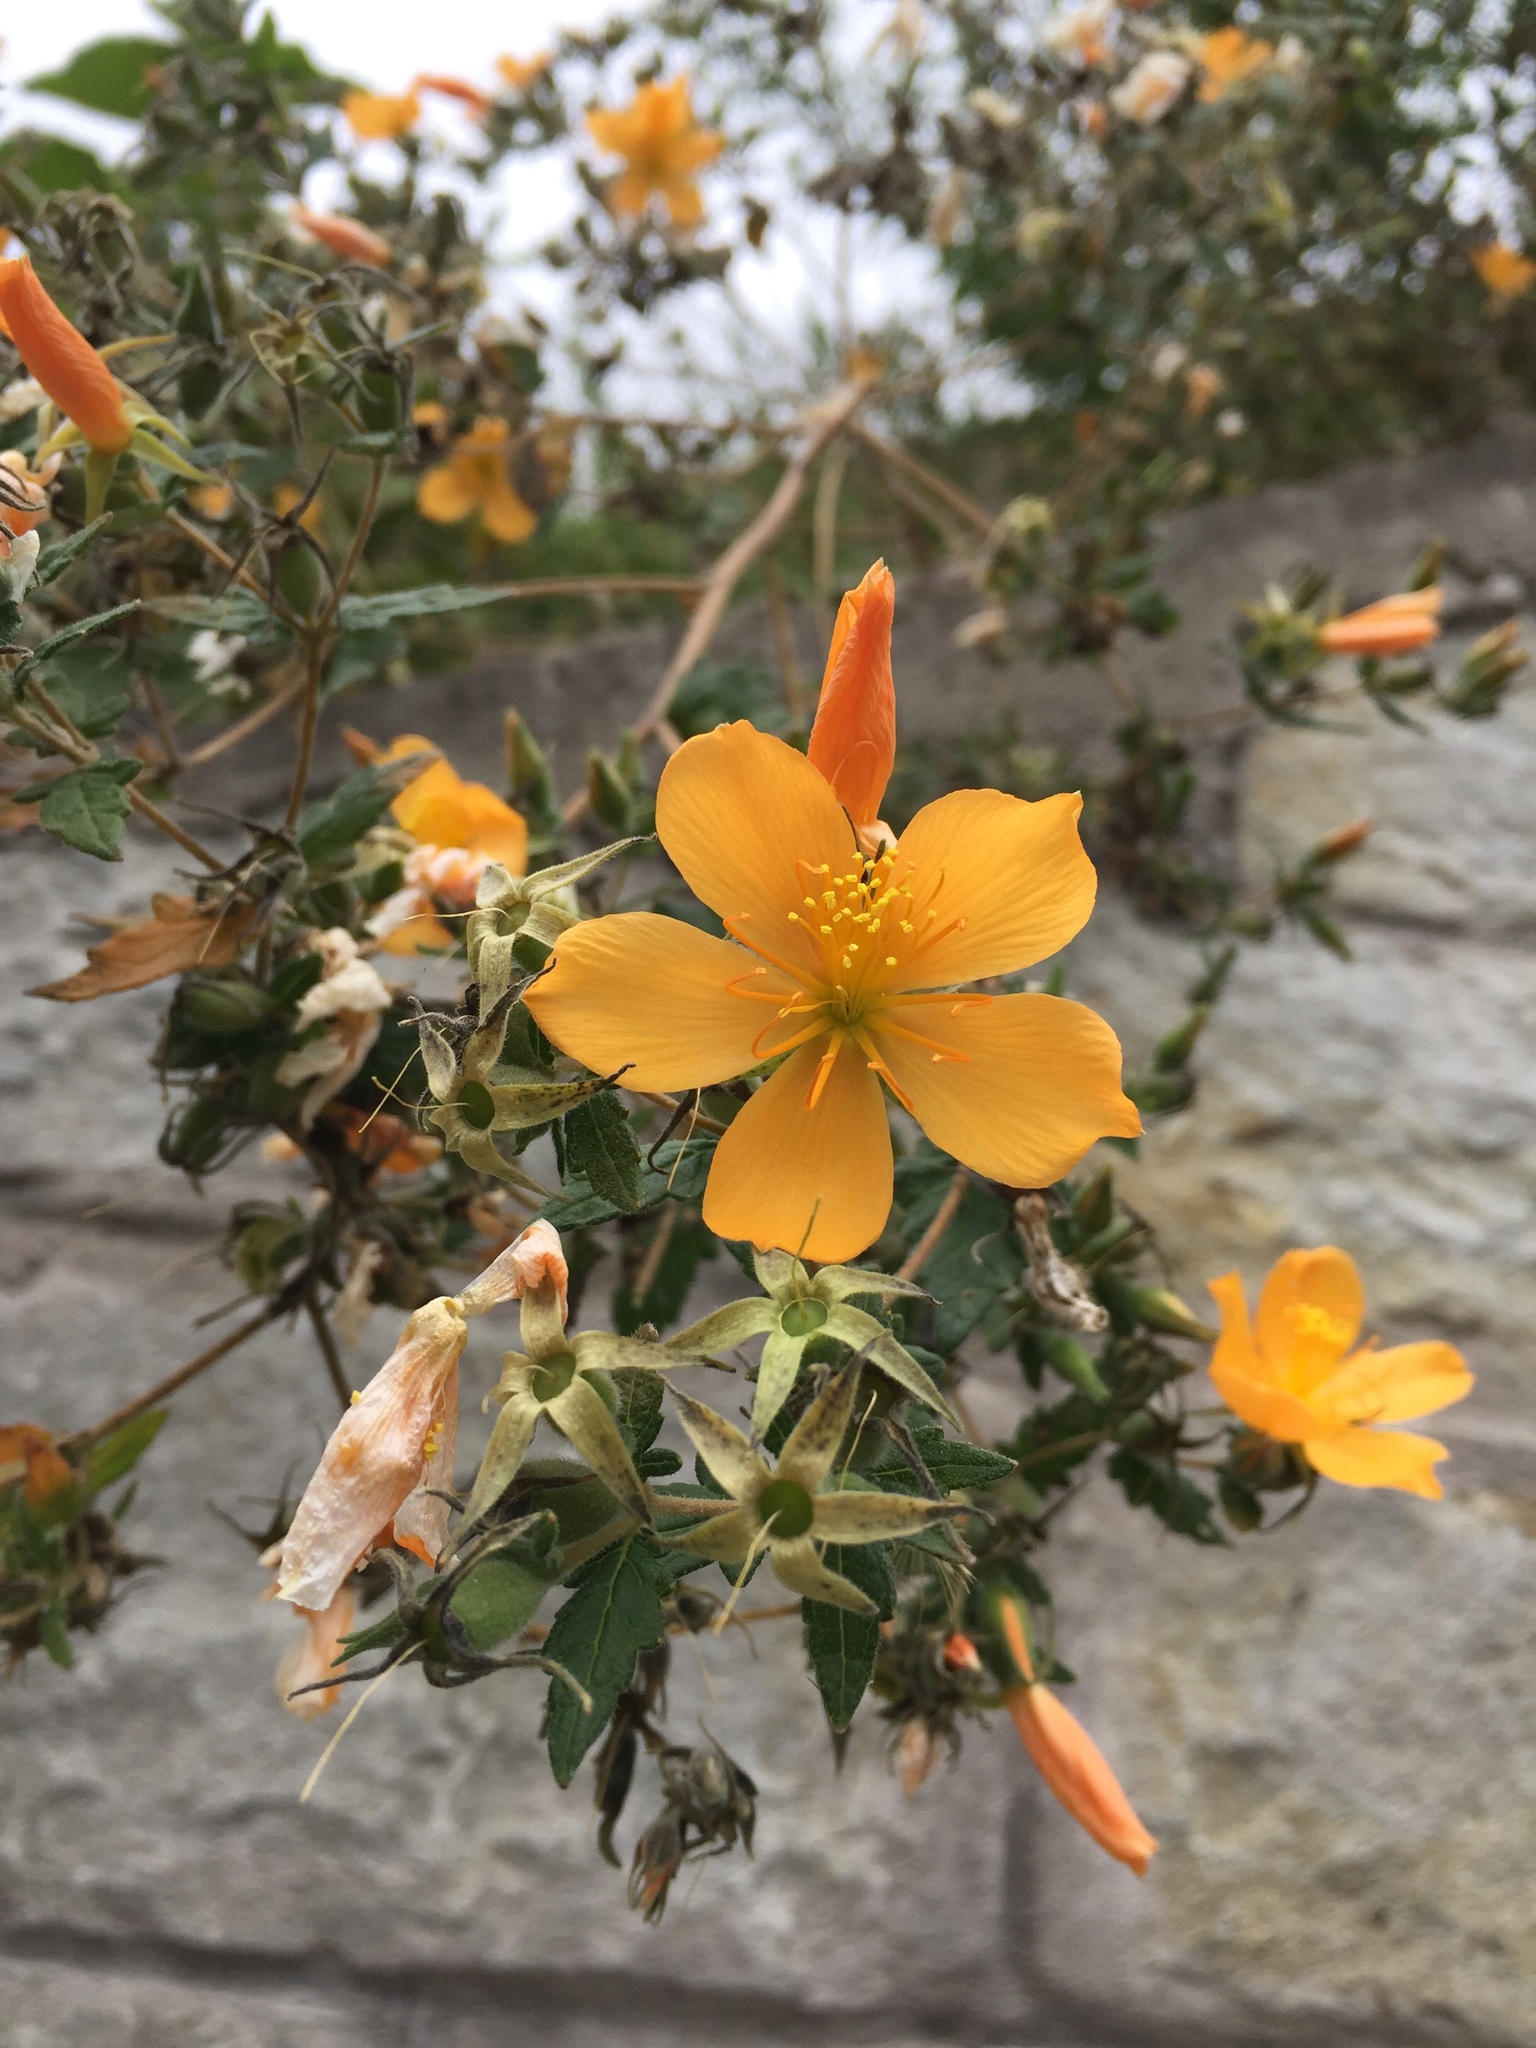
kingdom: Plantae
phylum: Tracheophyta
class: Magnoliopsida
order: Cornales
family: Loasaceae
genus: Mentzelia
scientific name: Mentzelia scabra
